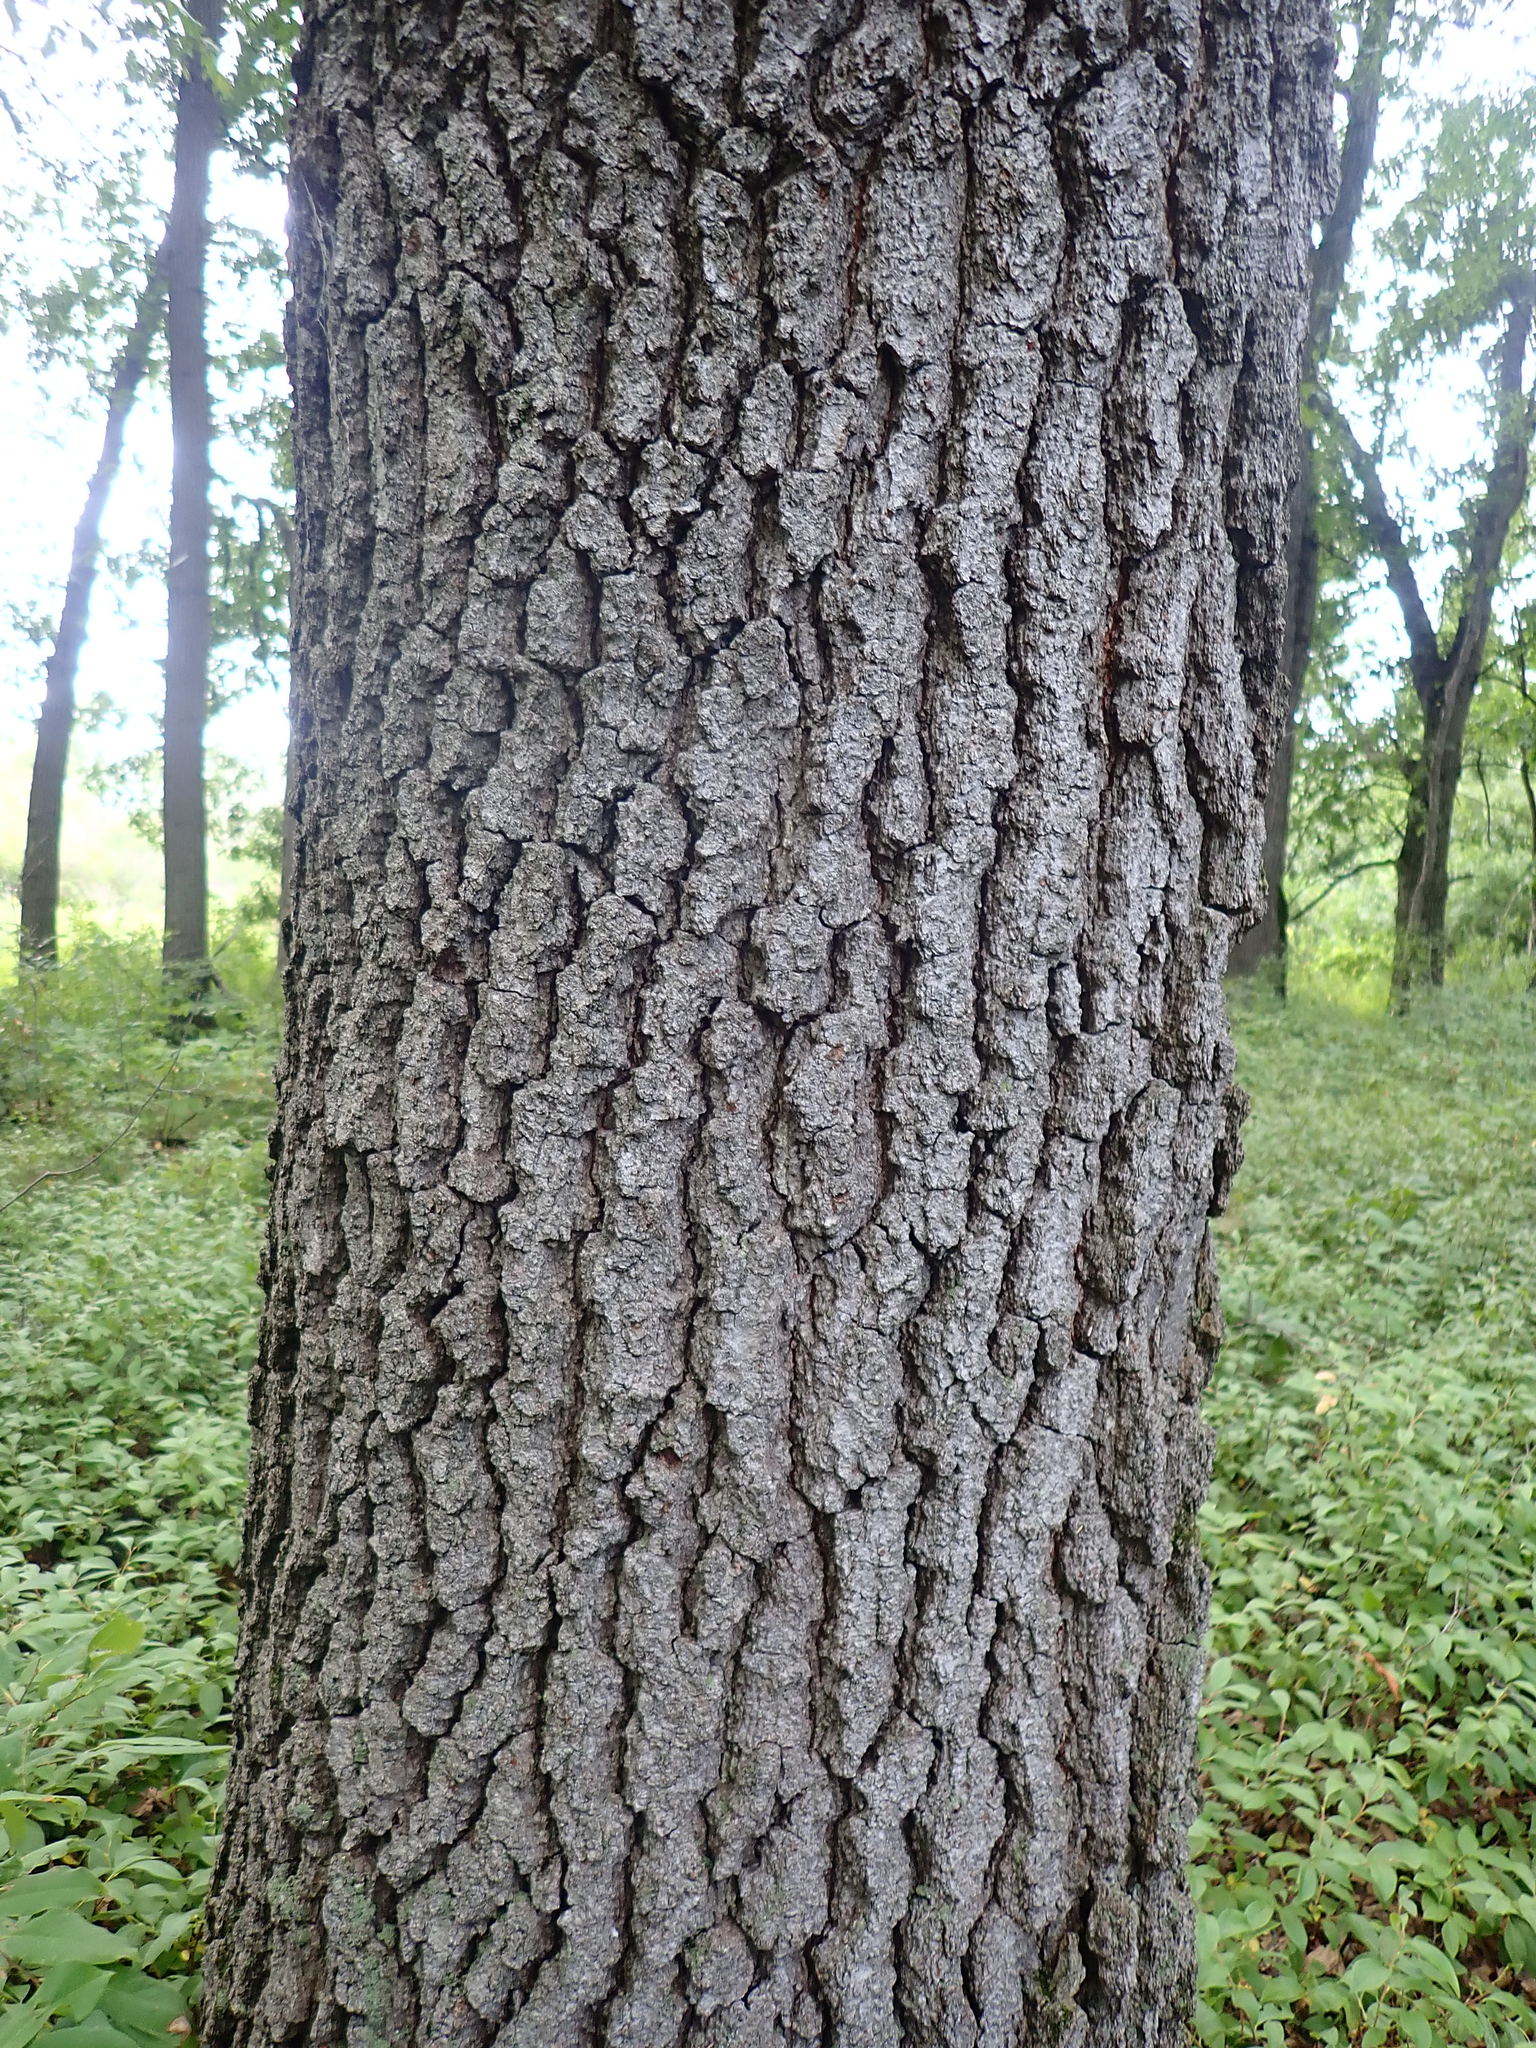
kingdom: Plantae
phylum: Tracheophyta
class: Magnoliopsida
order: Fagales
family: Fagaceae
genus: Quercus
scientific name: Quercus velutina
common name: Black oak
